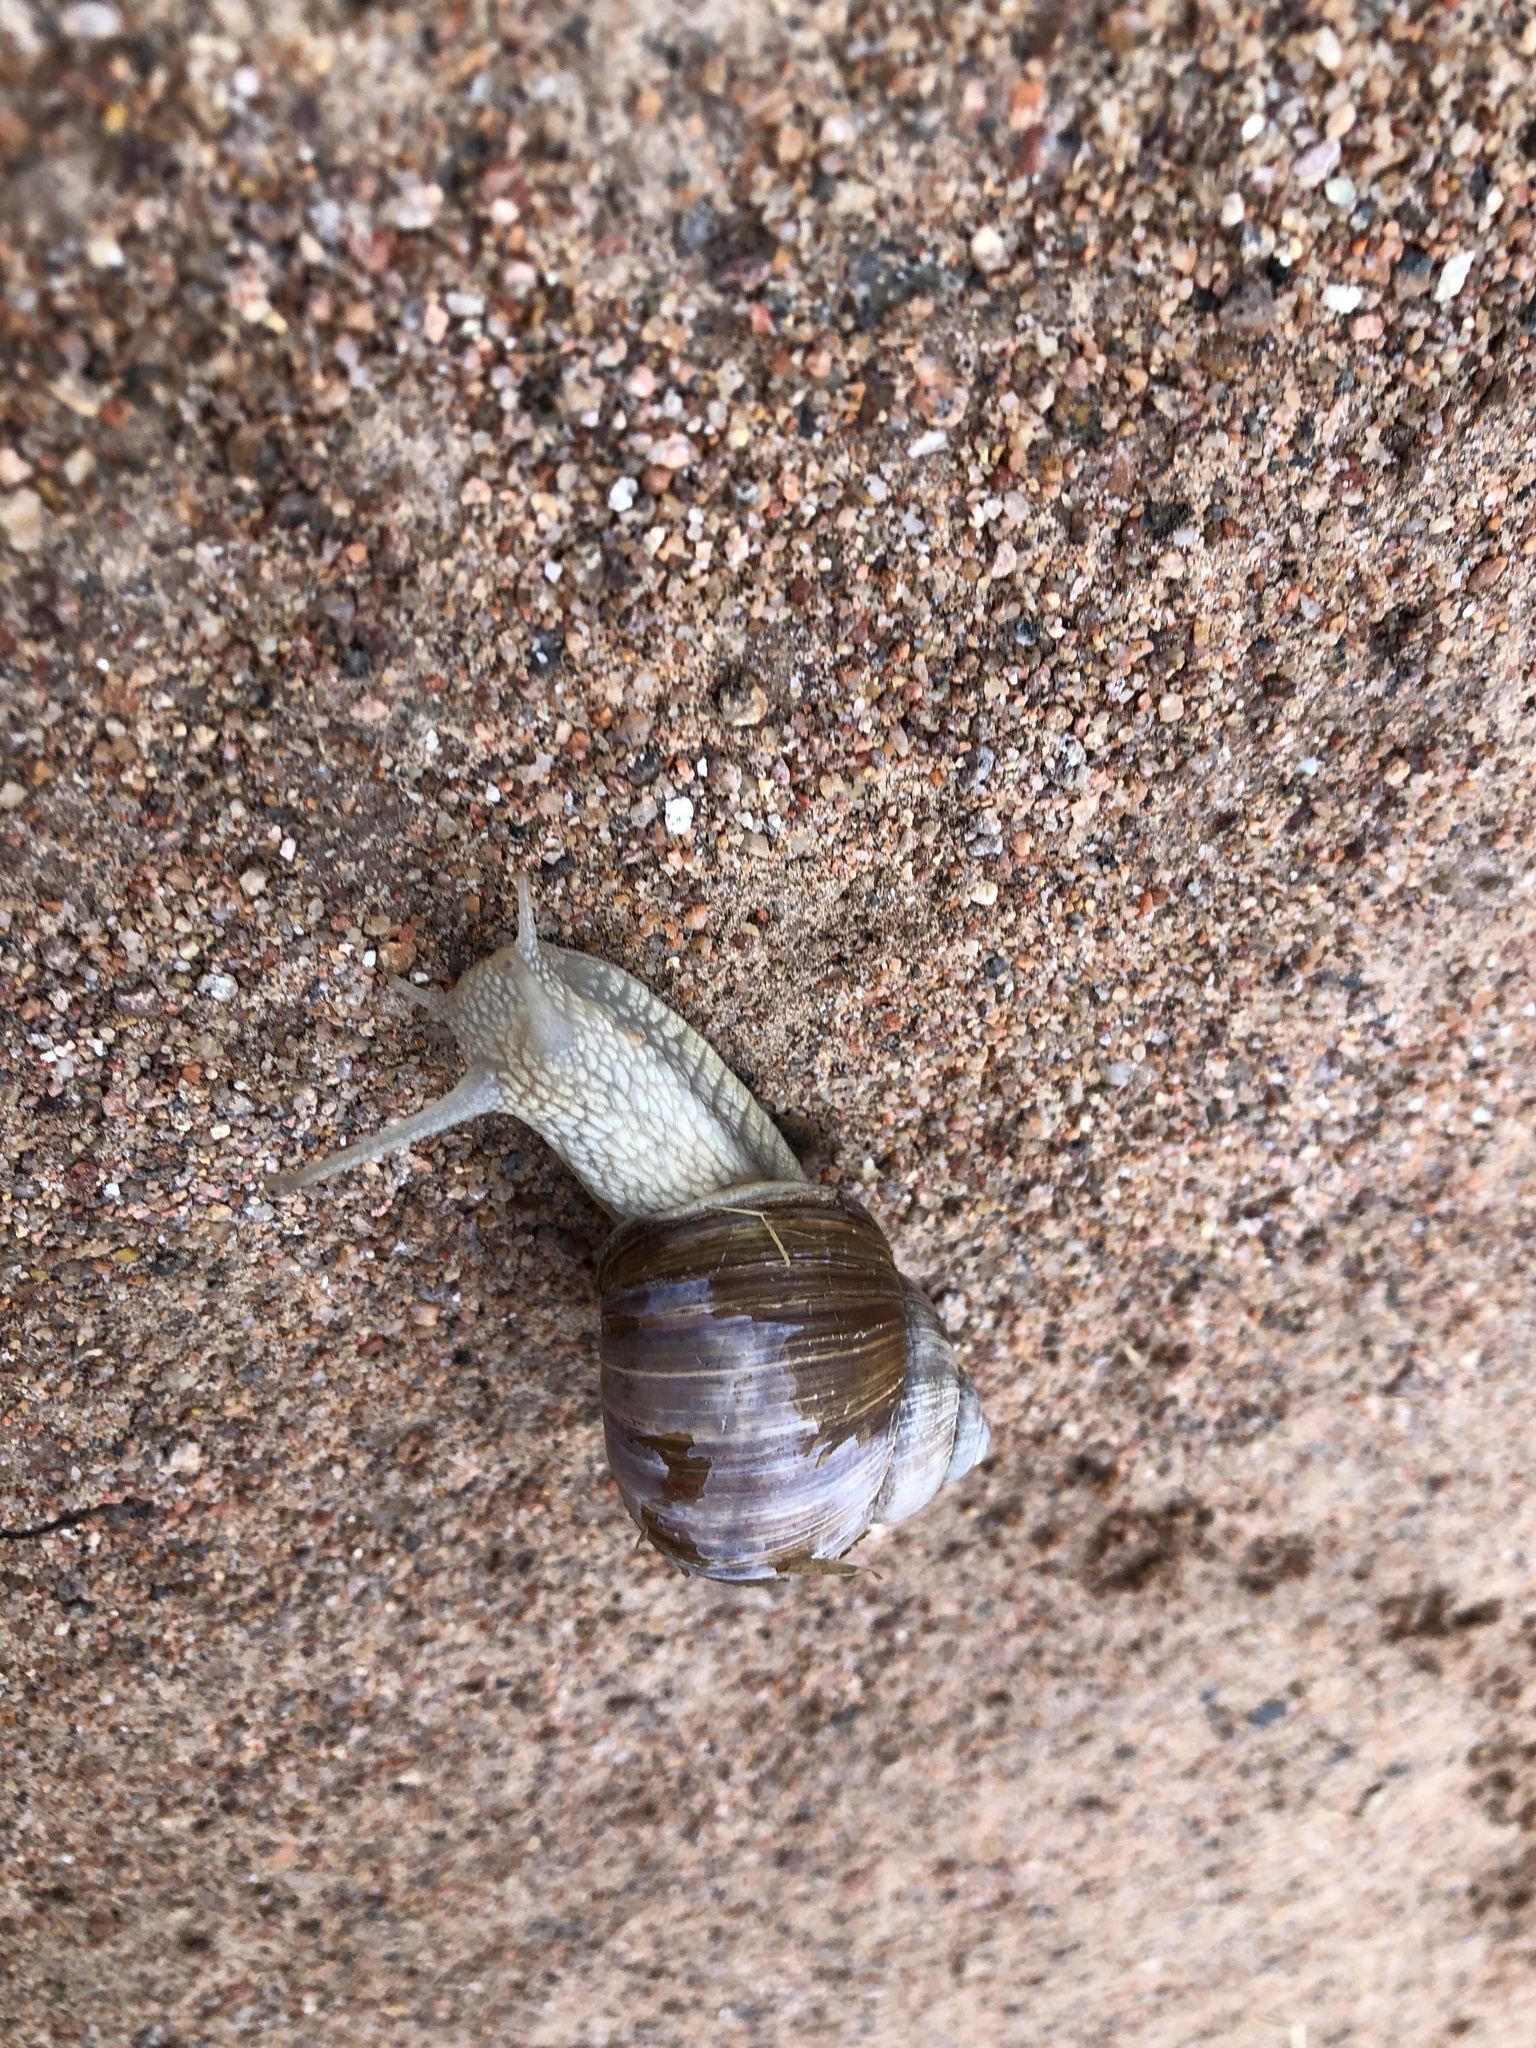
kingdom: Animalia
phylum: Mollusca
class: Gastropoda
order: Stylommatophora
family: Helicidae
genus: Helix
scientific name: Helix pomatia
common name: Roman snail
